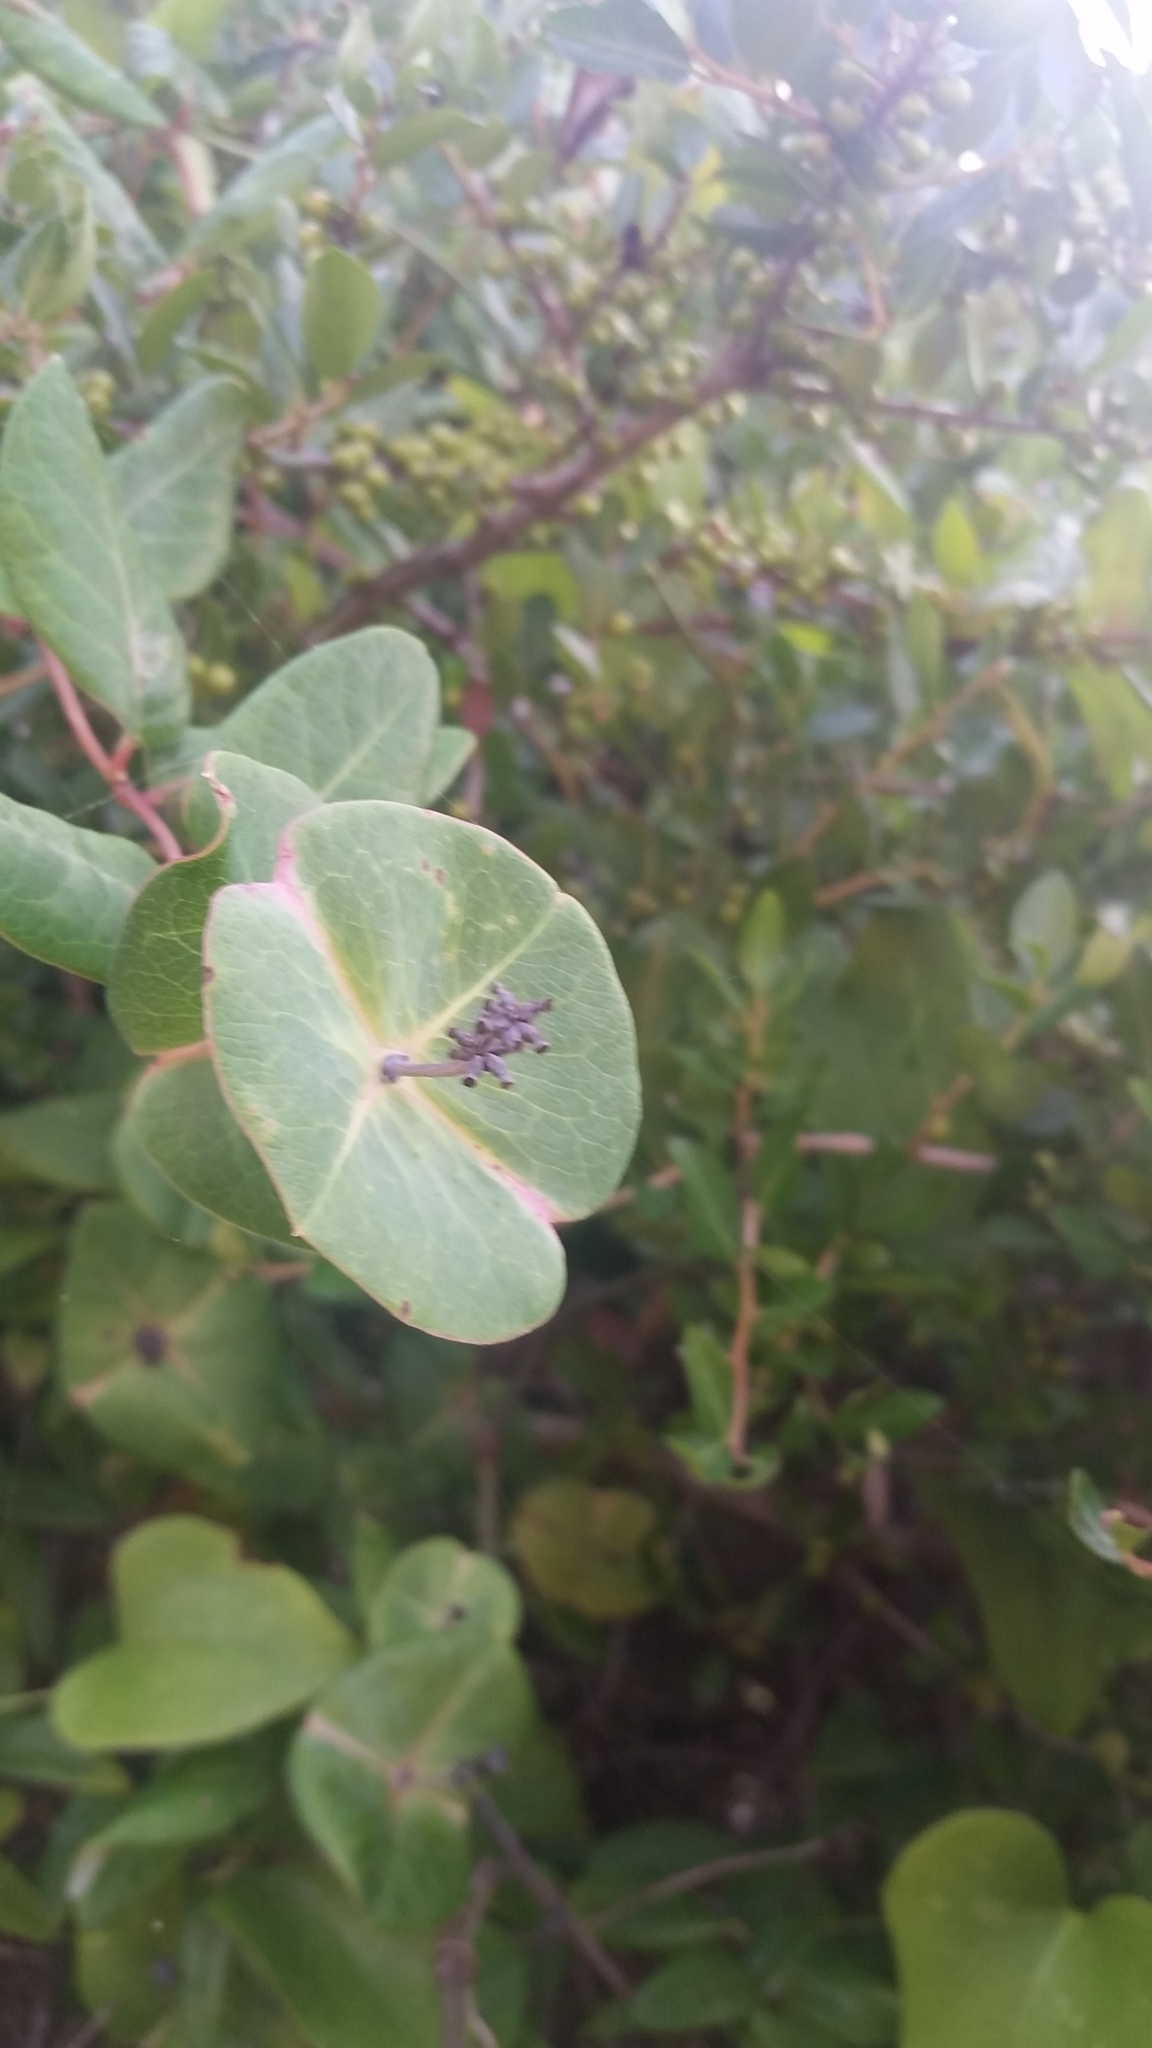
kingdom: Plantae
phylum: Tracheophyta
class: Magnoliopsida
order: Dipsacales
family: Caprifoliaceae
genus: Lonicera
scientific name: Lonicera sempervirens
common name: Coral honeysuckle
